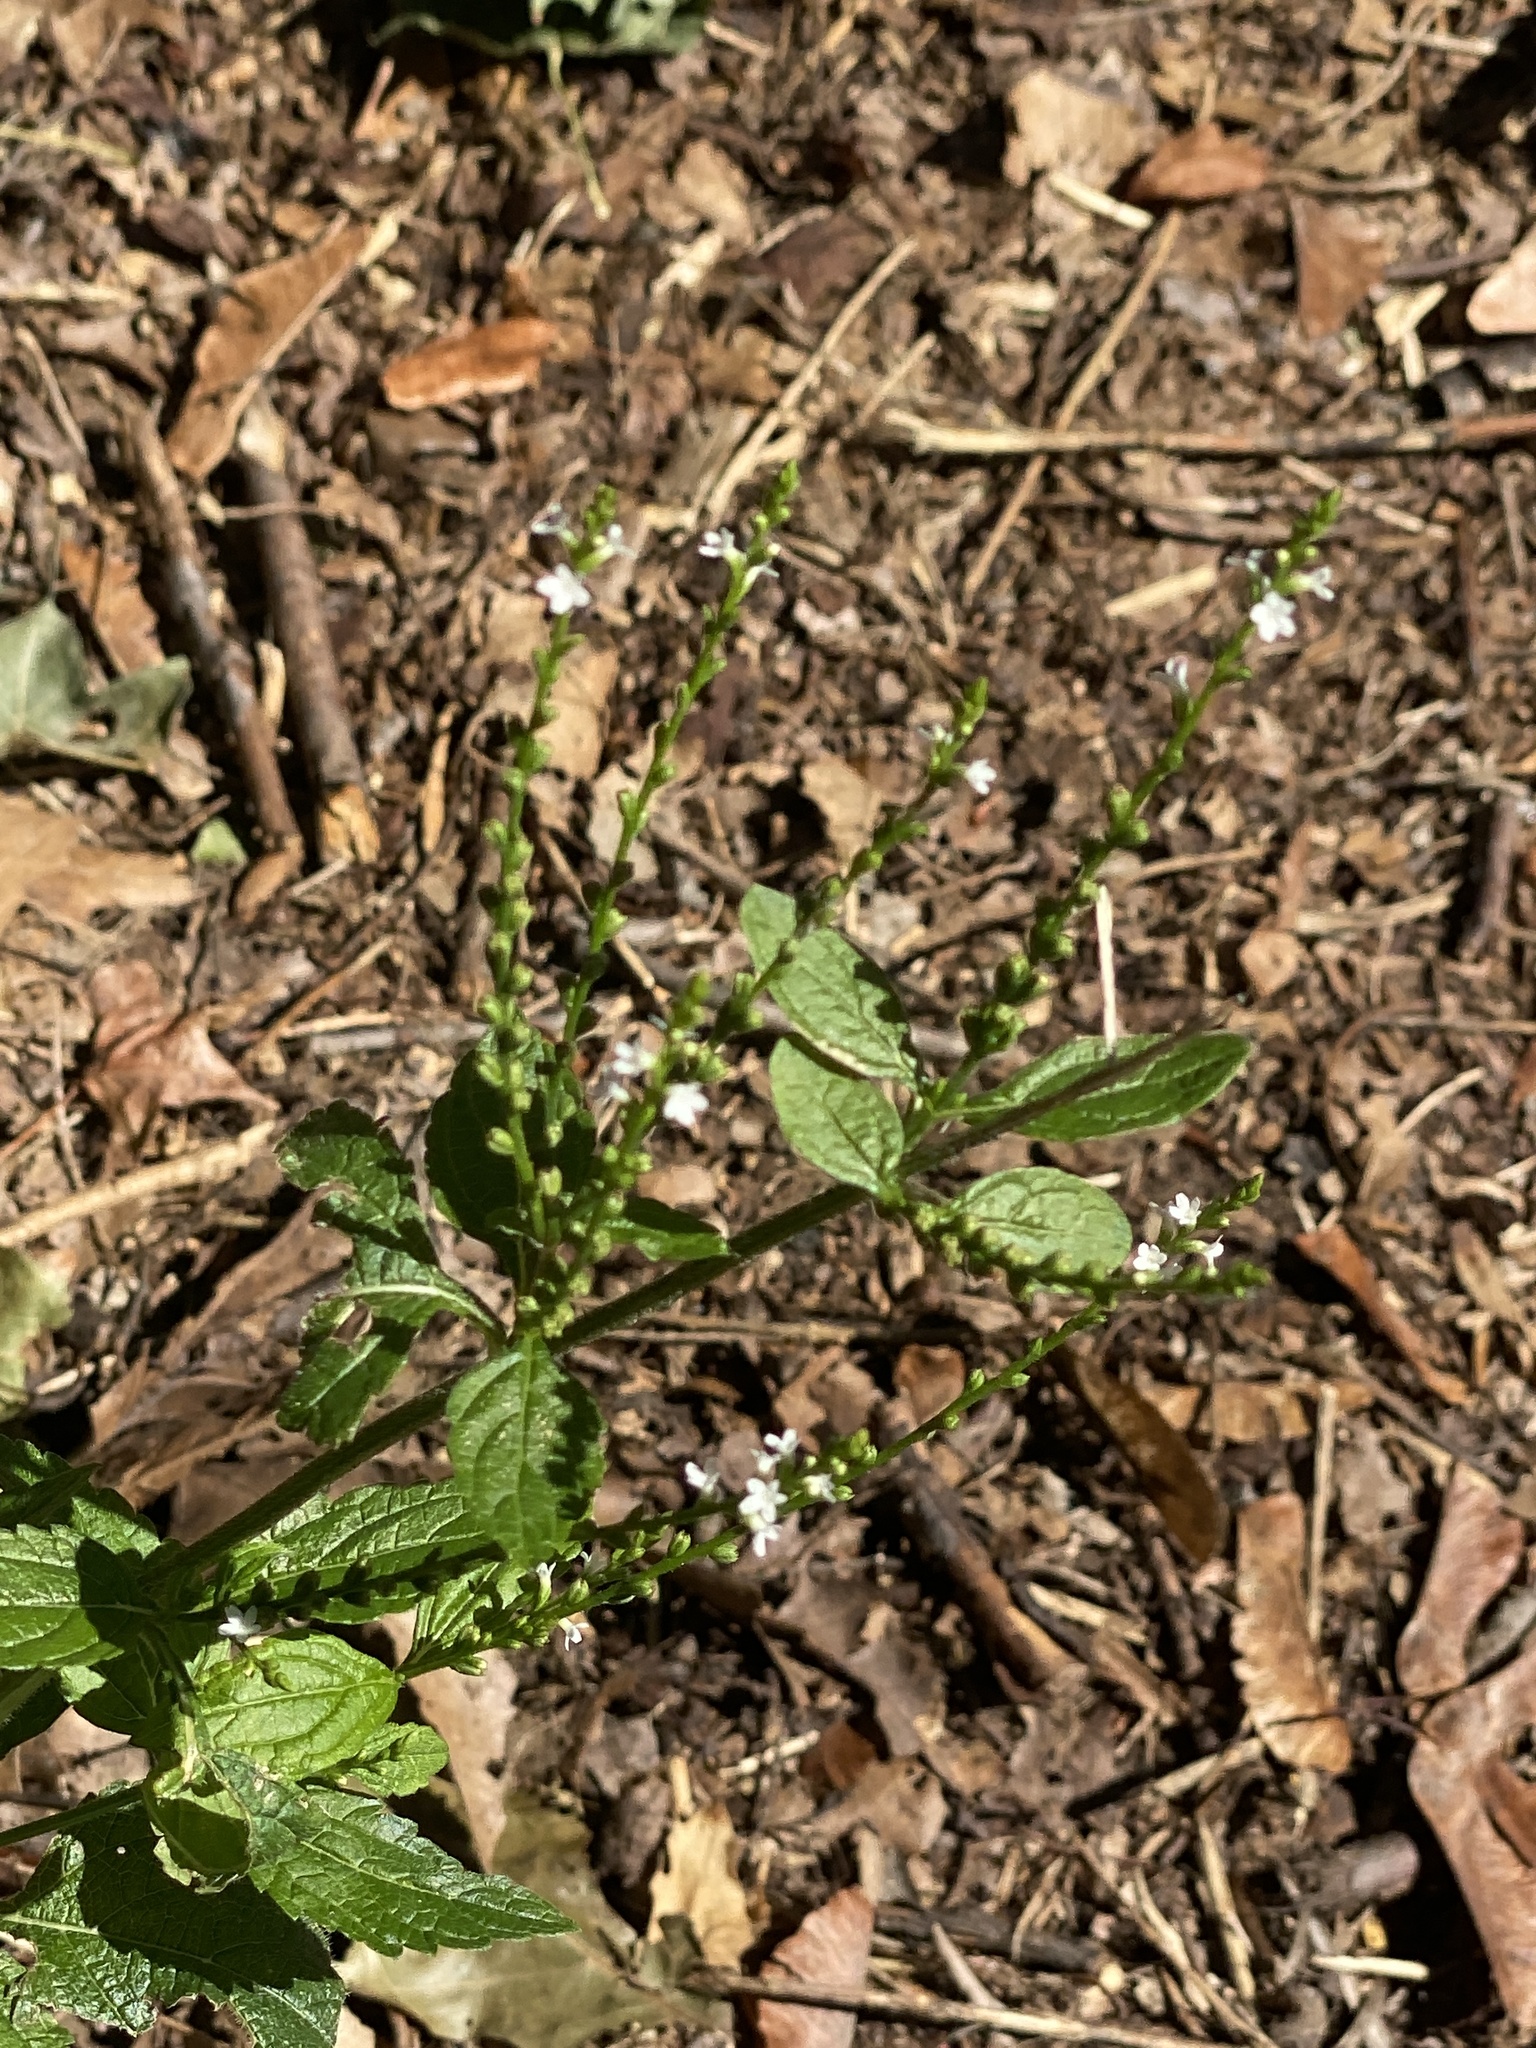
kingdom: Plantae
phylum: Tracheophyta
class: Magnoliopsida
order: Lamiales
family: Verbenaceae
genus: Verbena
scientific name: Verbena urticifolia
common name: Nettle-leaved vervain
